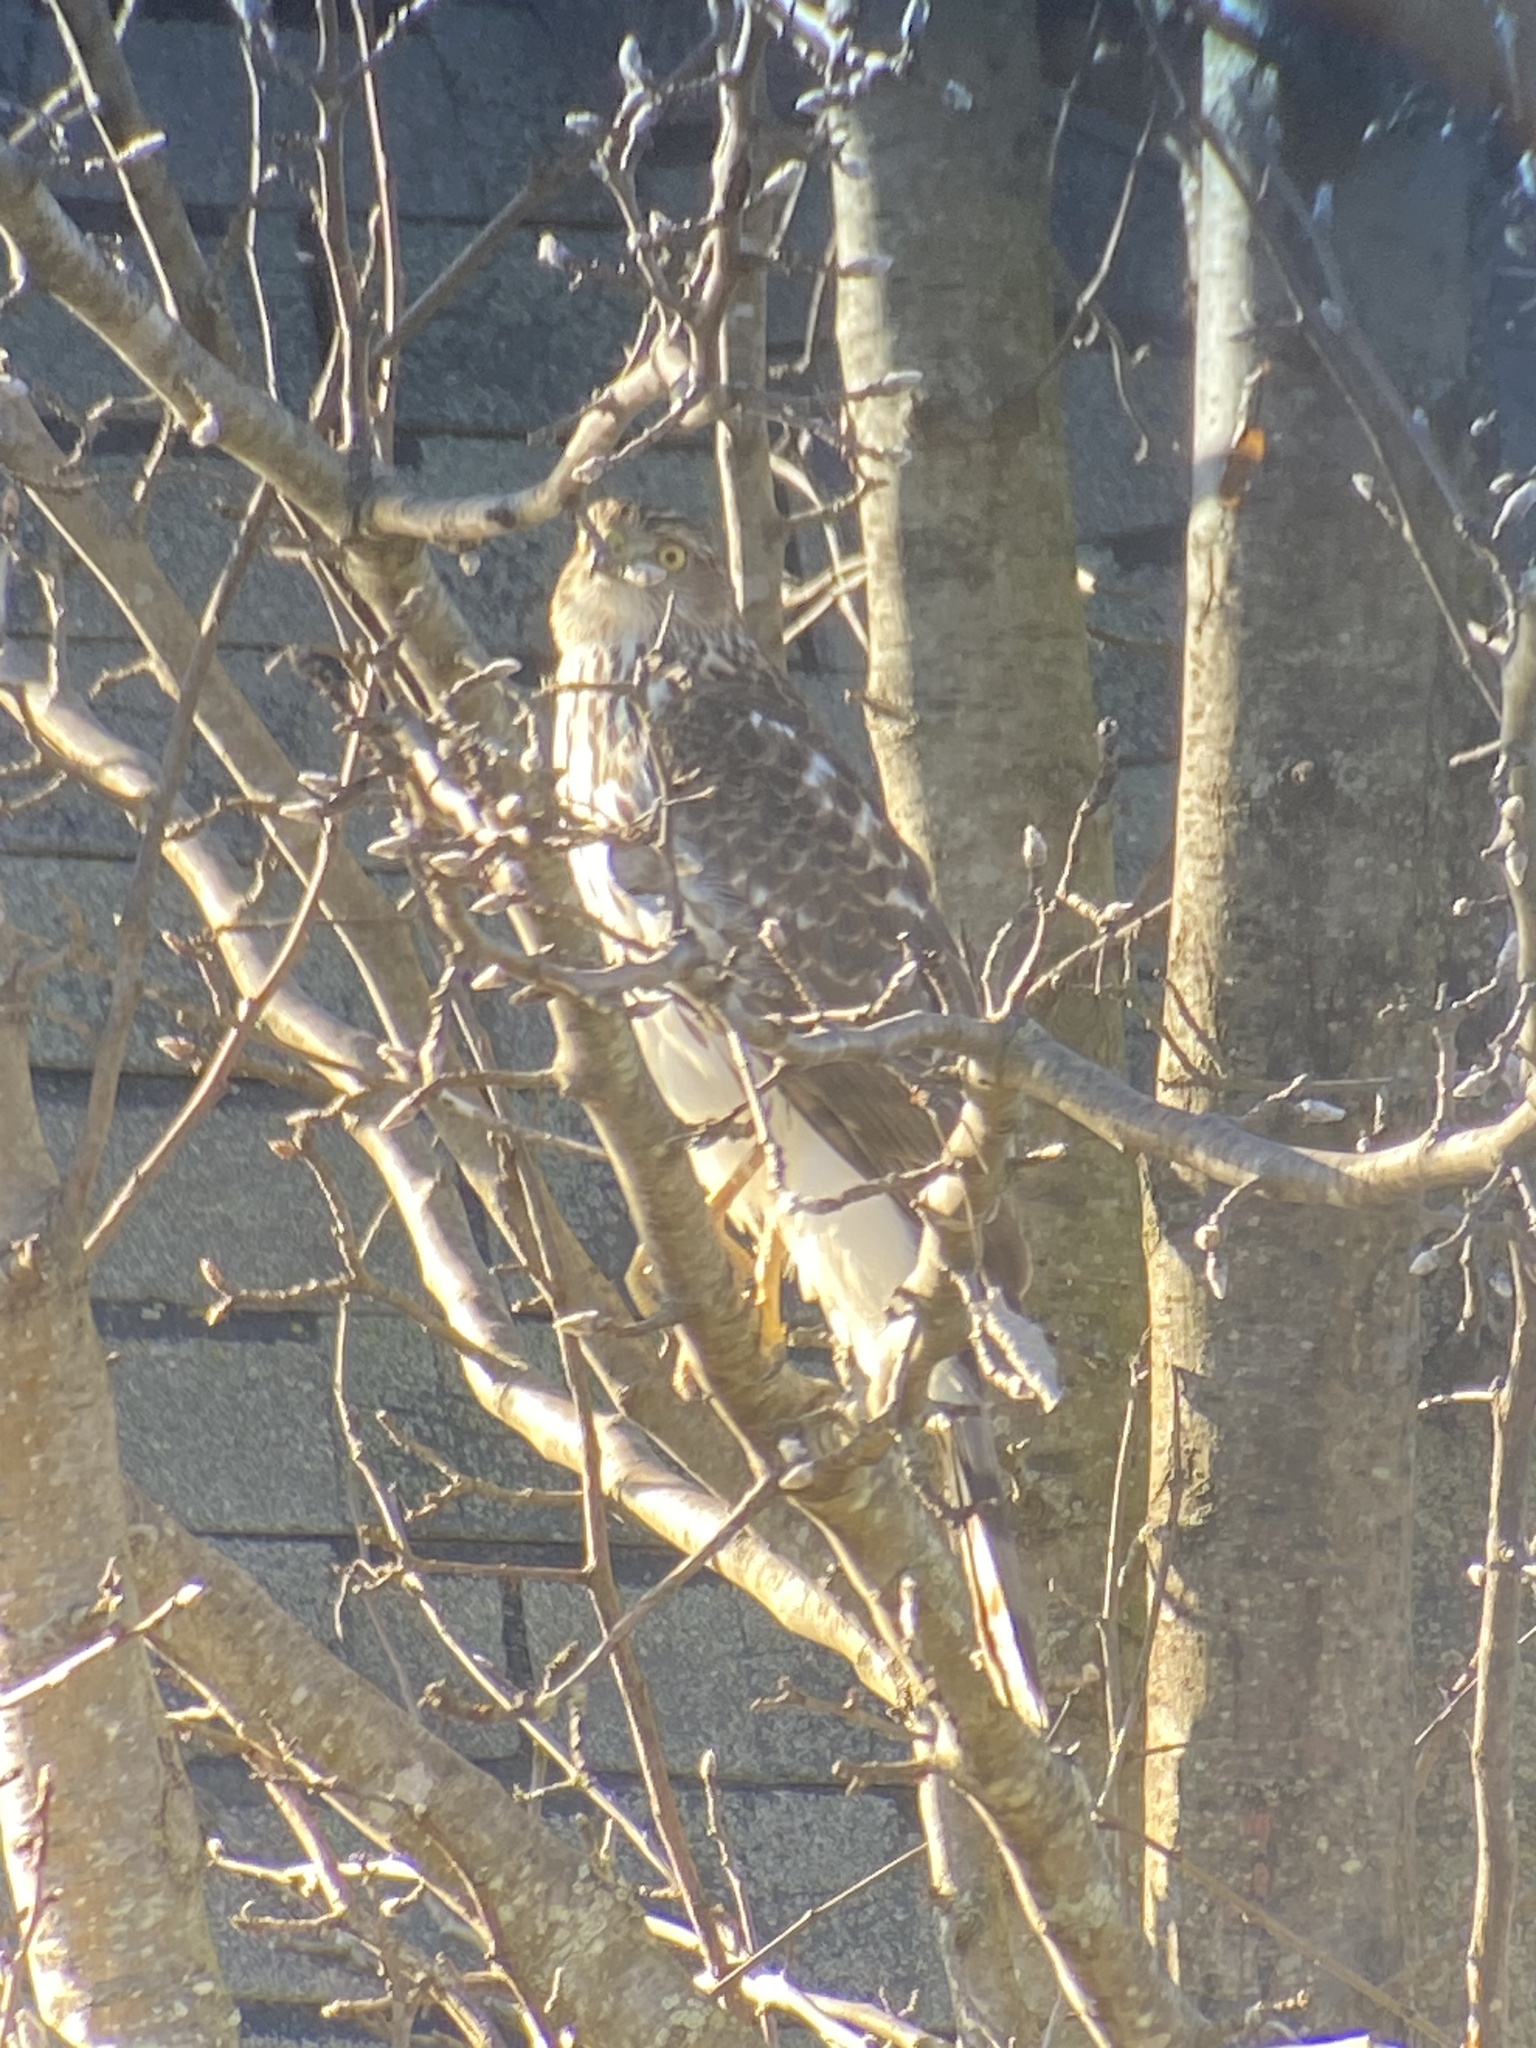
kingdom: Animalia
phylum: Chordata
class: Aves
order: Accipitriformes
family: Accipitridae
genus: Accipiter
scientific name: Accipiter cooperii
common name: Cooper's hawk
